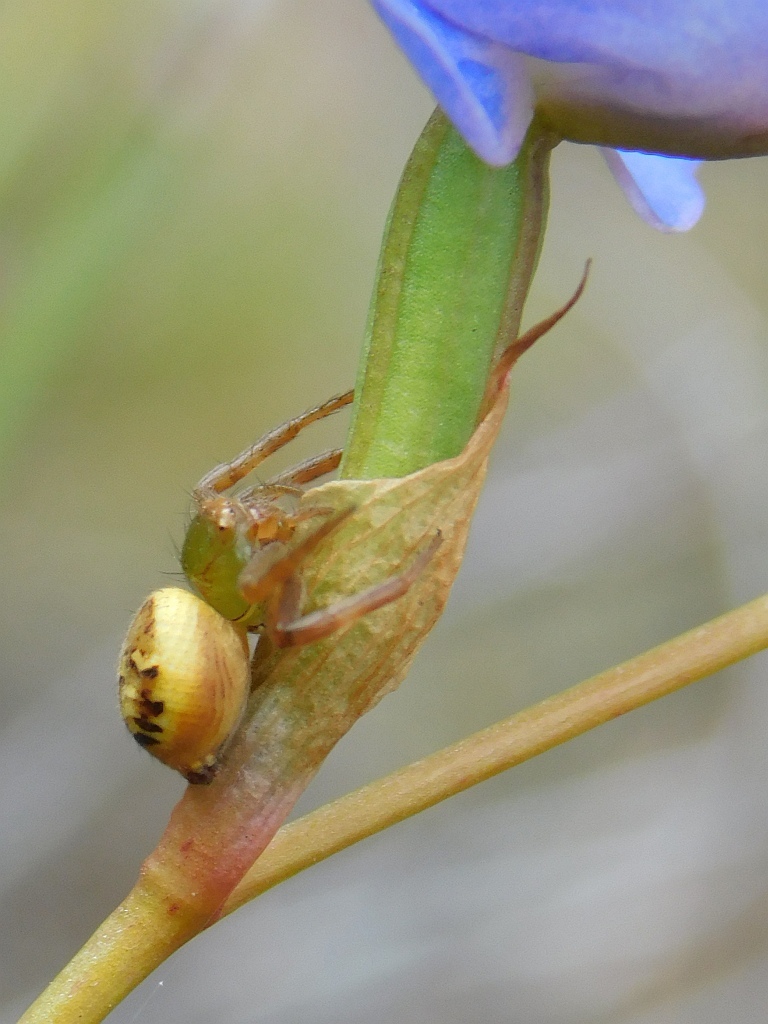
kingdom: Animalia
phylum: Arthropoda
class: Arachnida
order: Araneae
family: Thomisidae
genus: Synema
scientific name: Synema imitatrix
